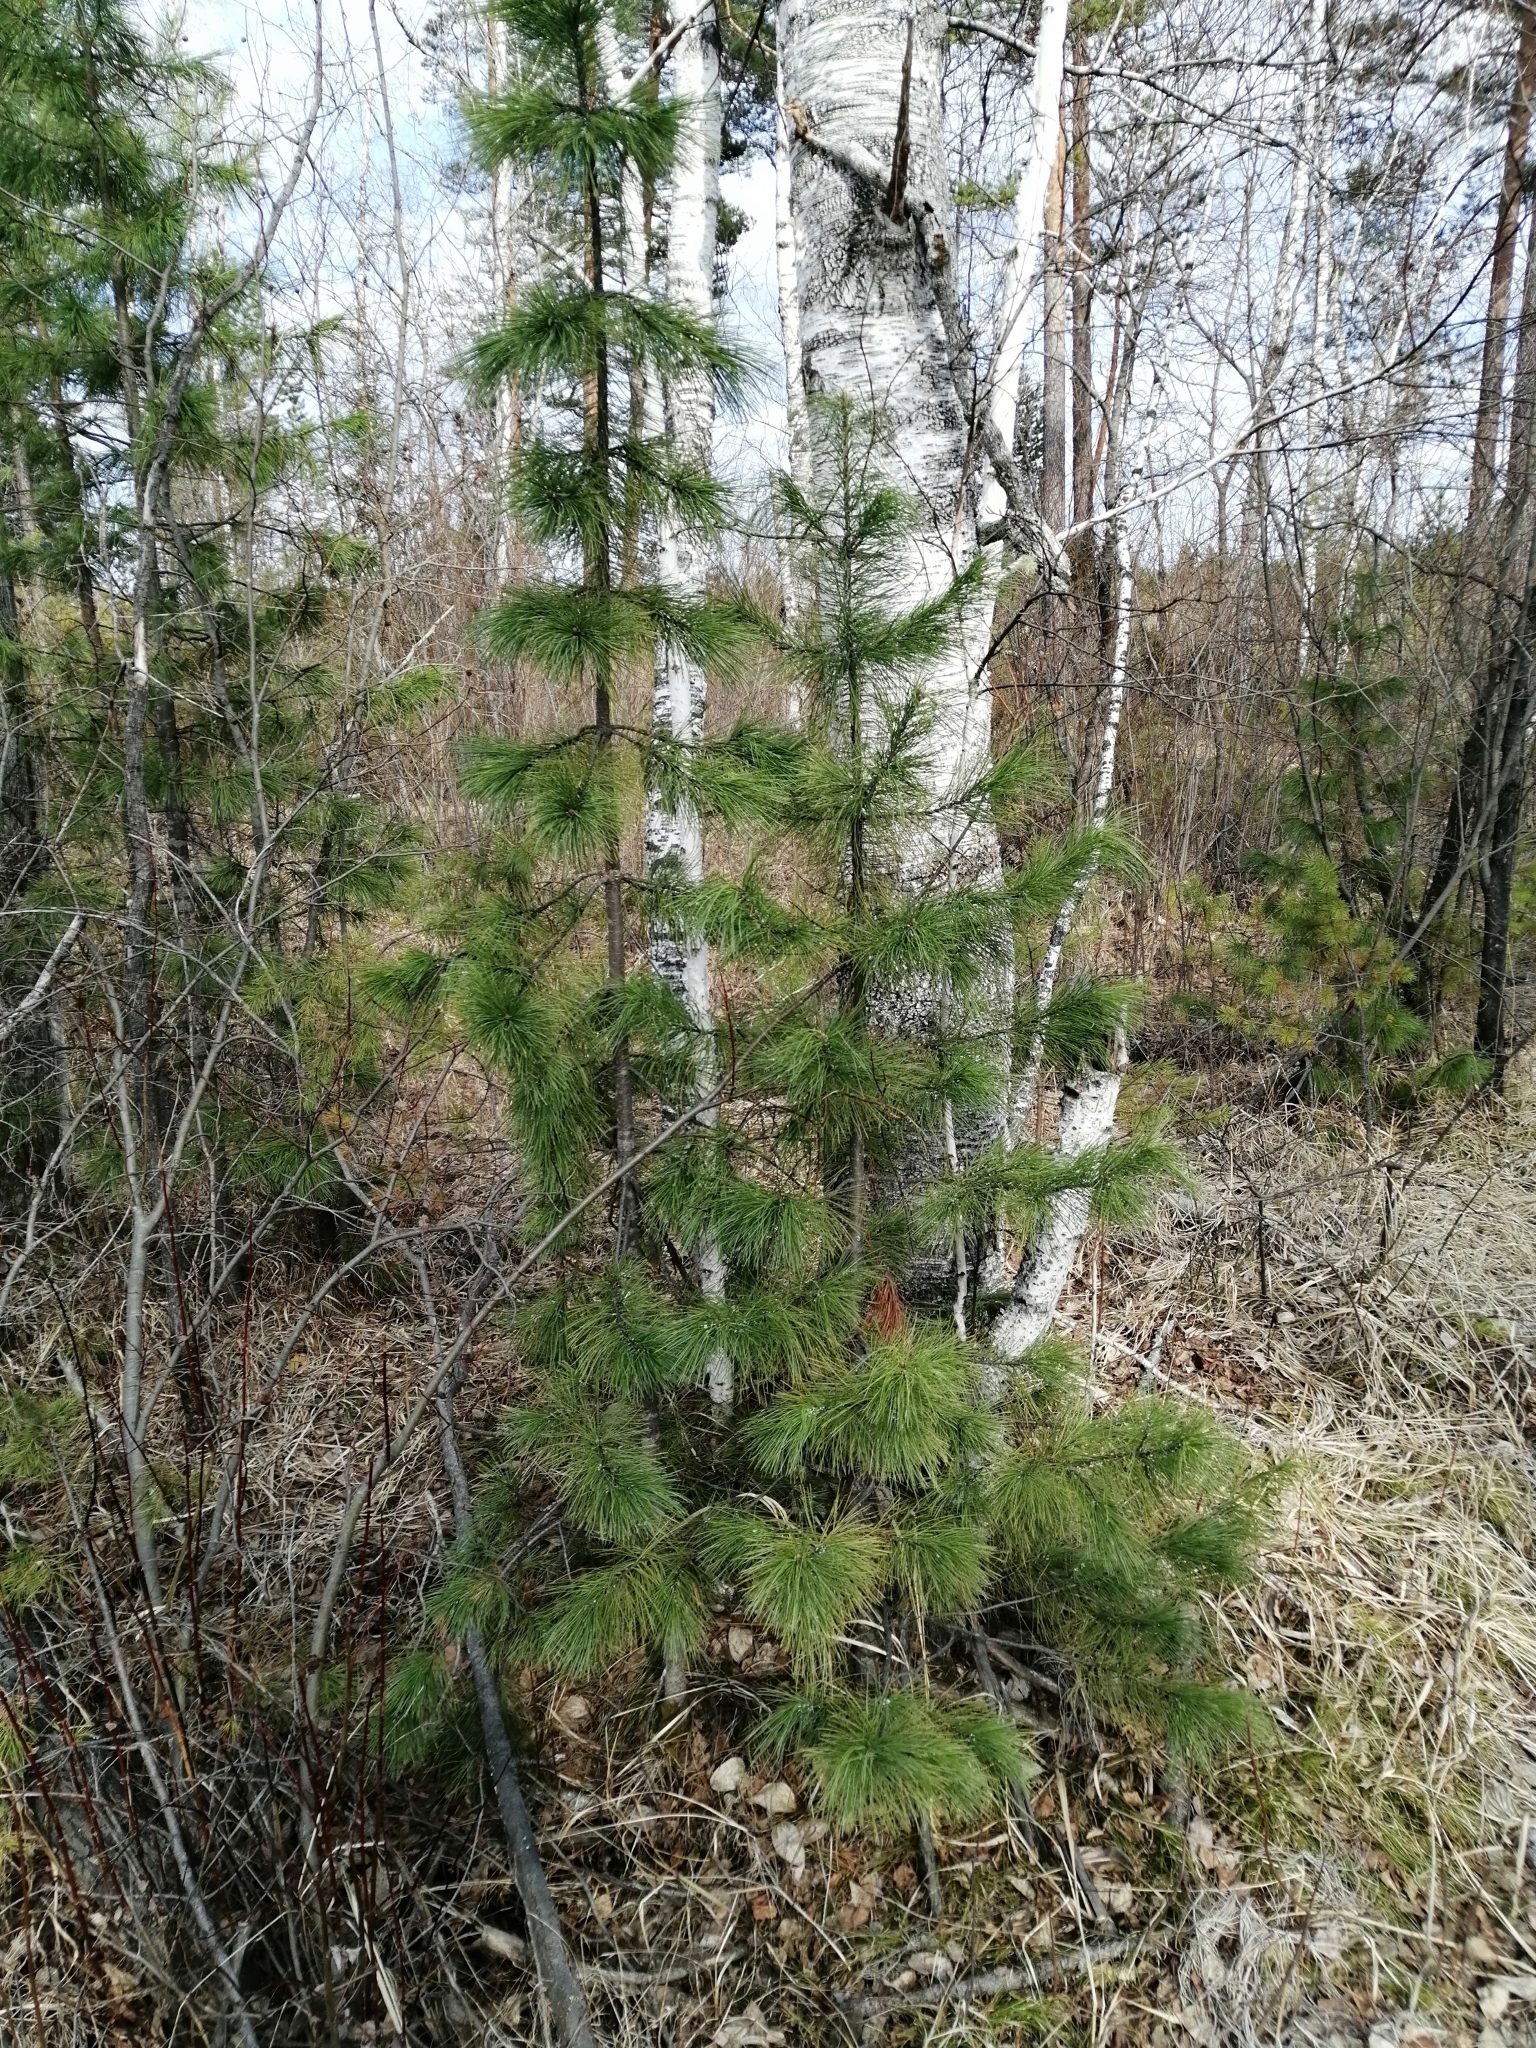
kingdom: Plantae
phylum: Tracheophyta
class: Pinopsida
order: Pinales
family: Pinaceae
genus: Pinus
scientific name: Pinus sibirica
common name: Siberian pine
